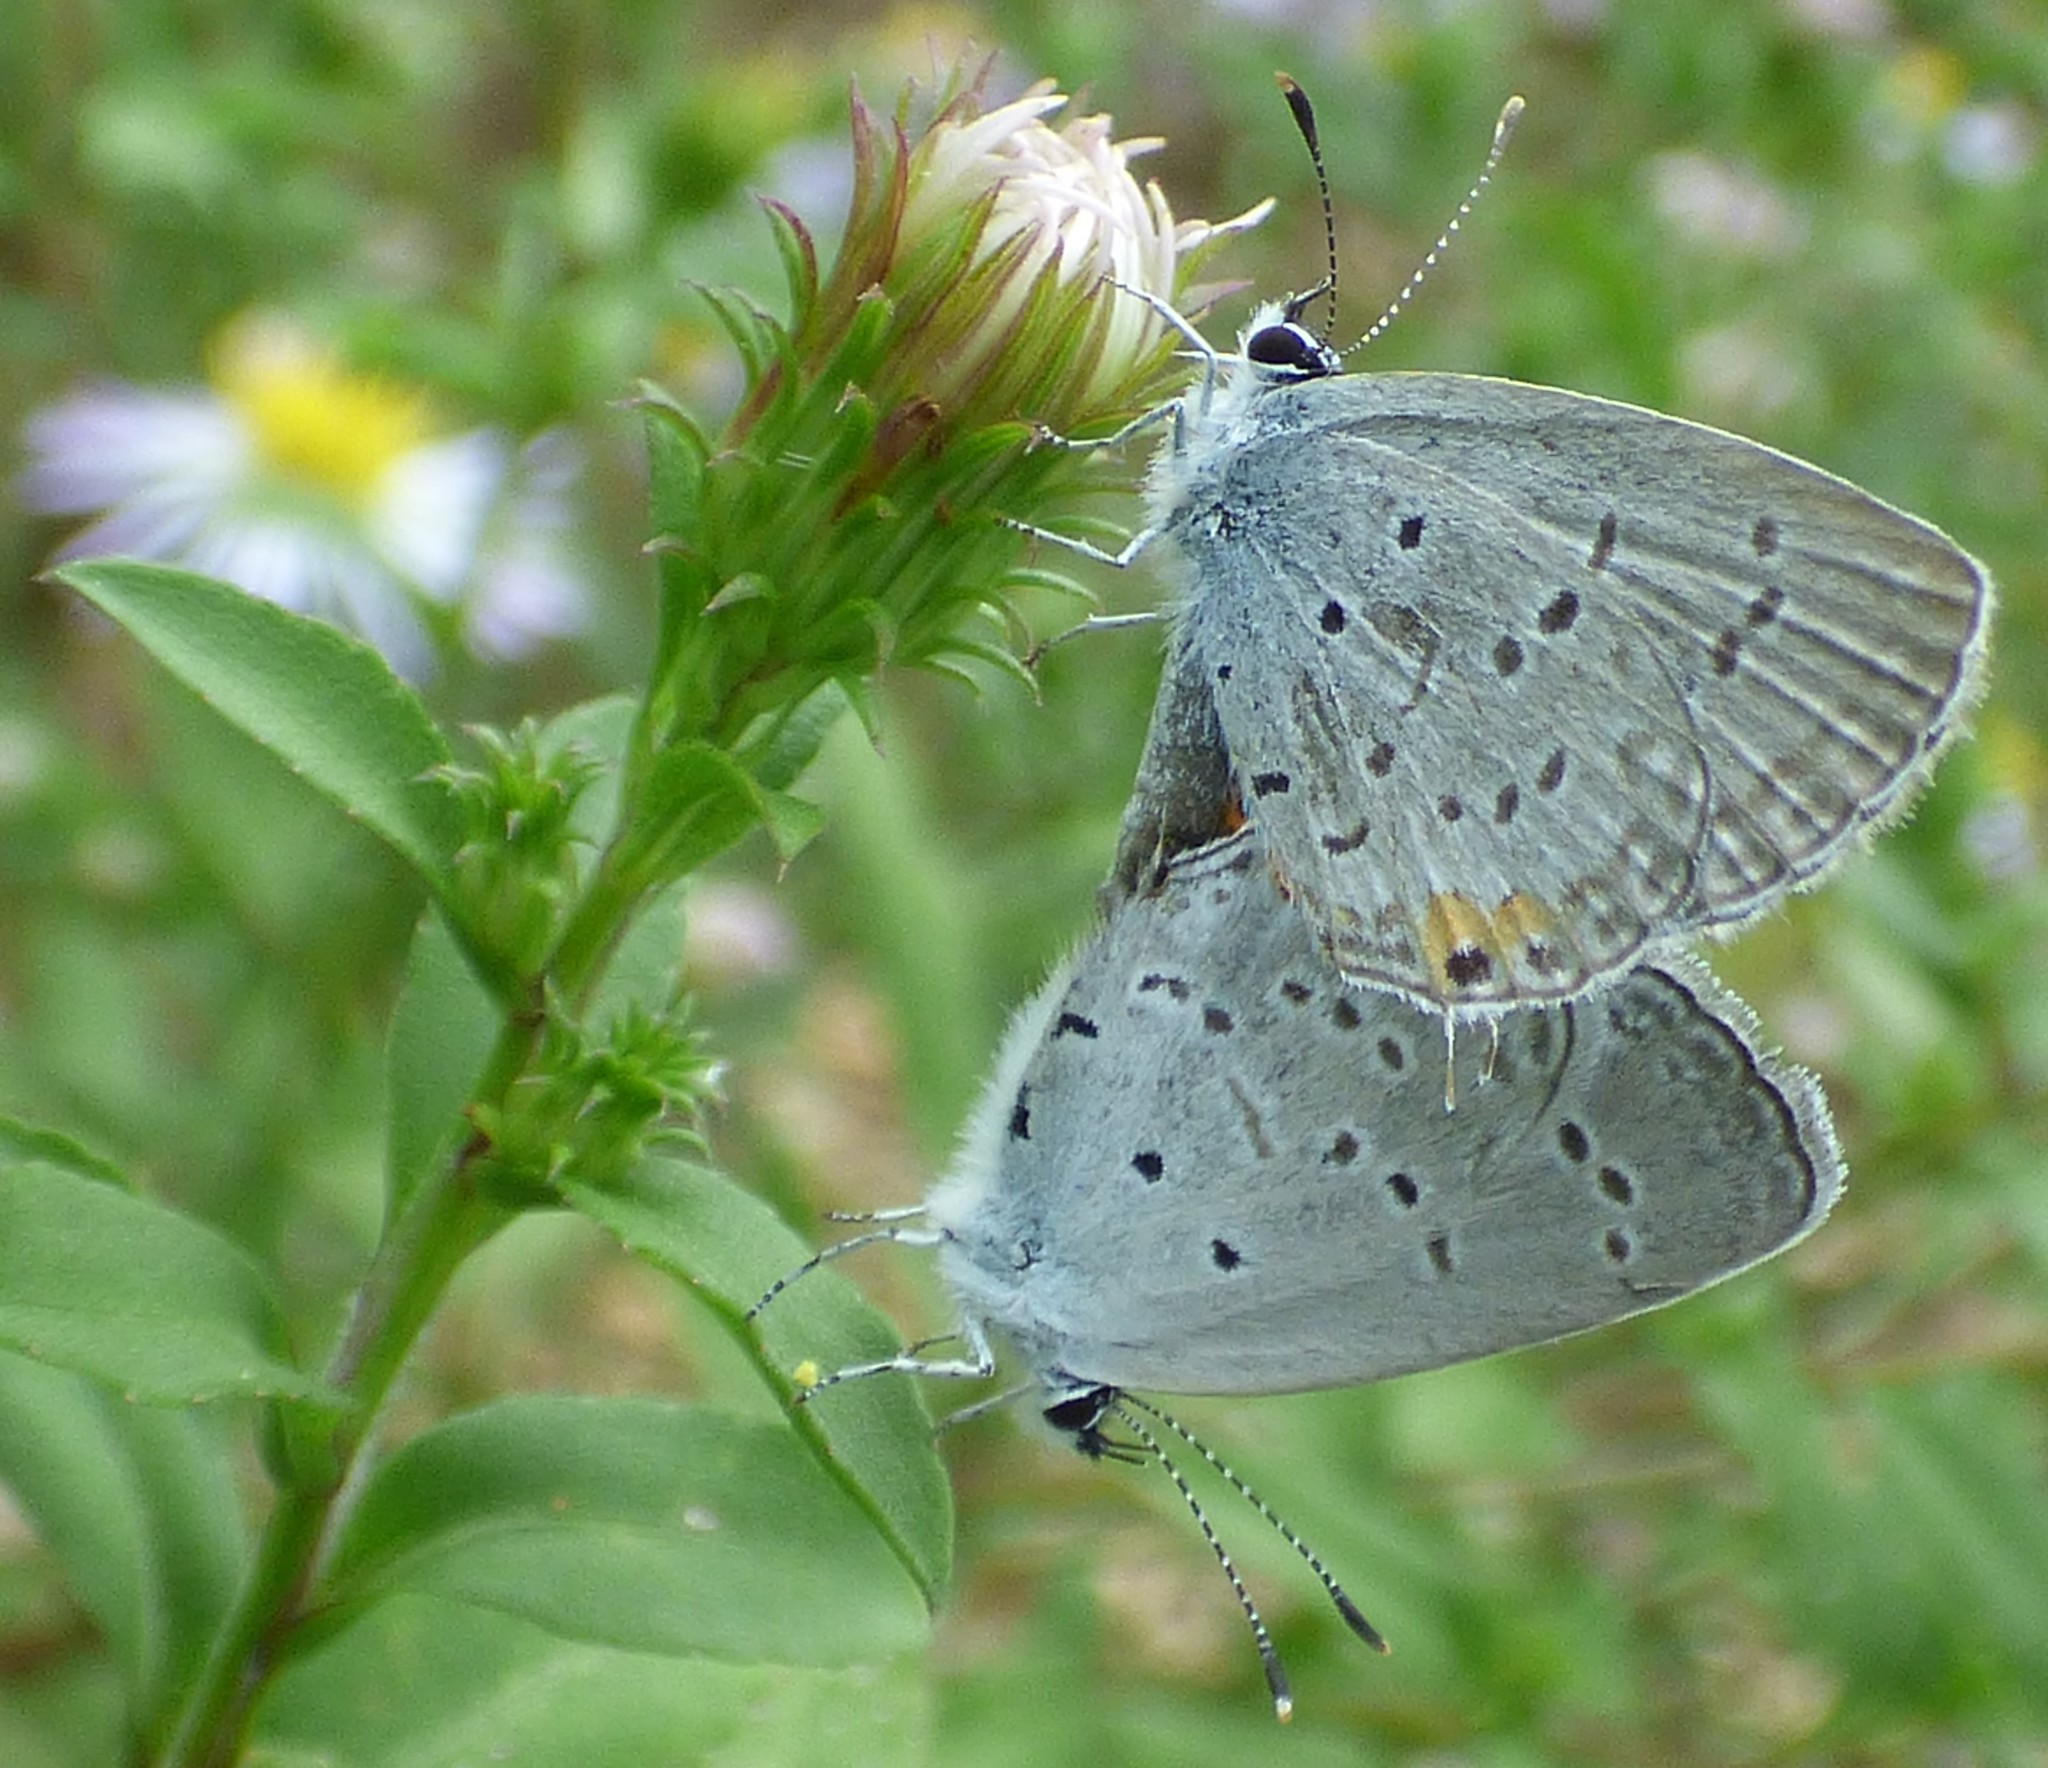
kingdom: Animalia
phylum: Arthropoda
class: Insecta
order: Lepidoptera
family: Lycaenidae
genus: Elkalyce
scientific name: Elkalyce comyntas
